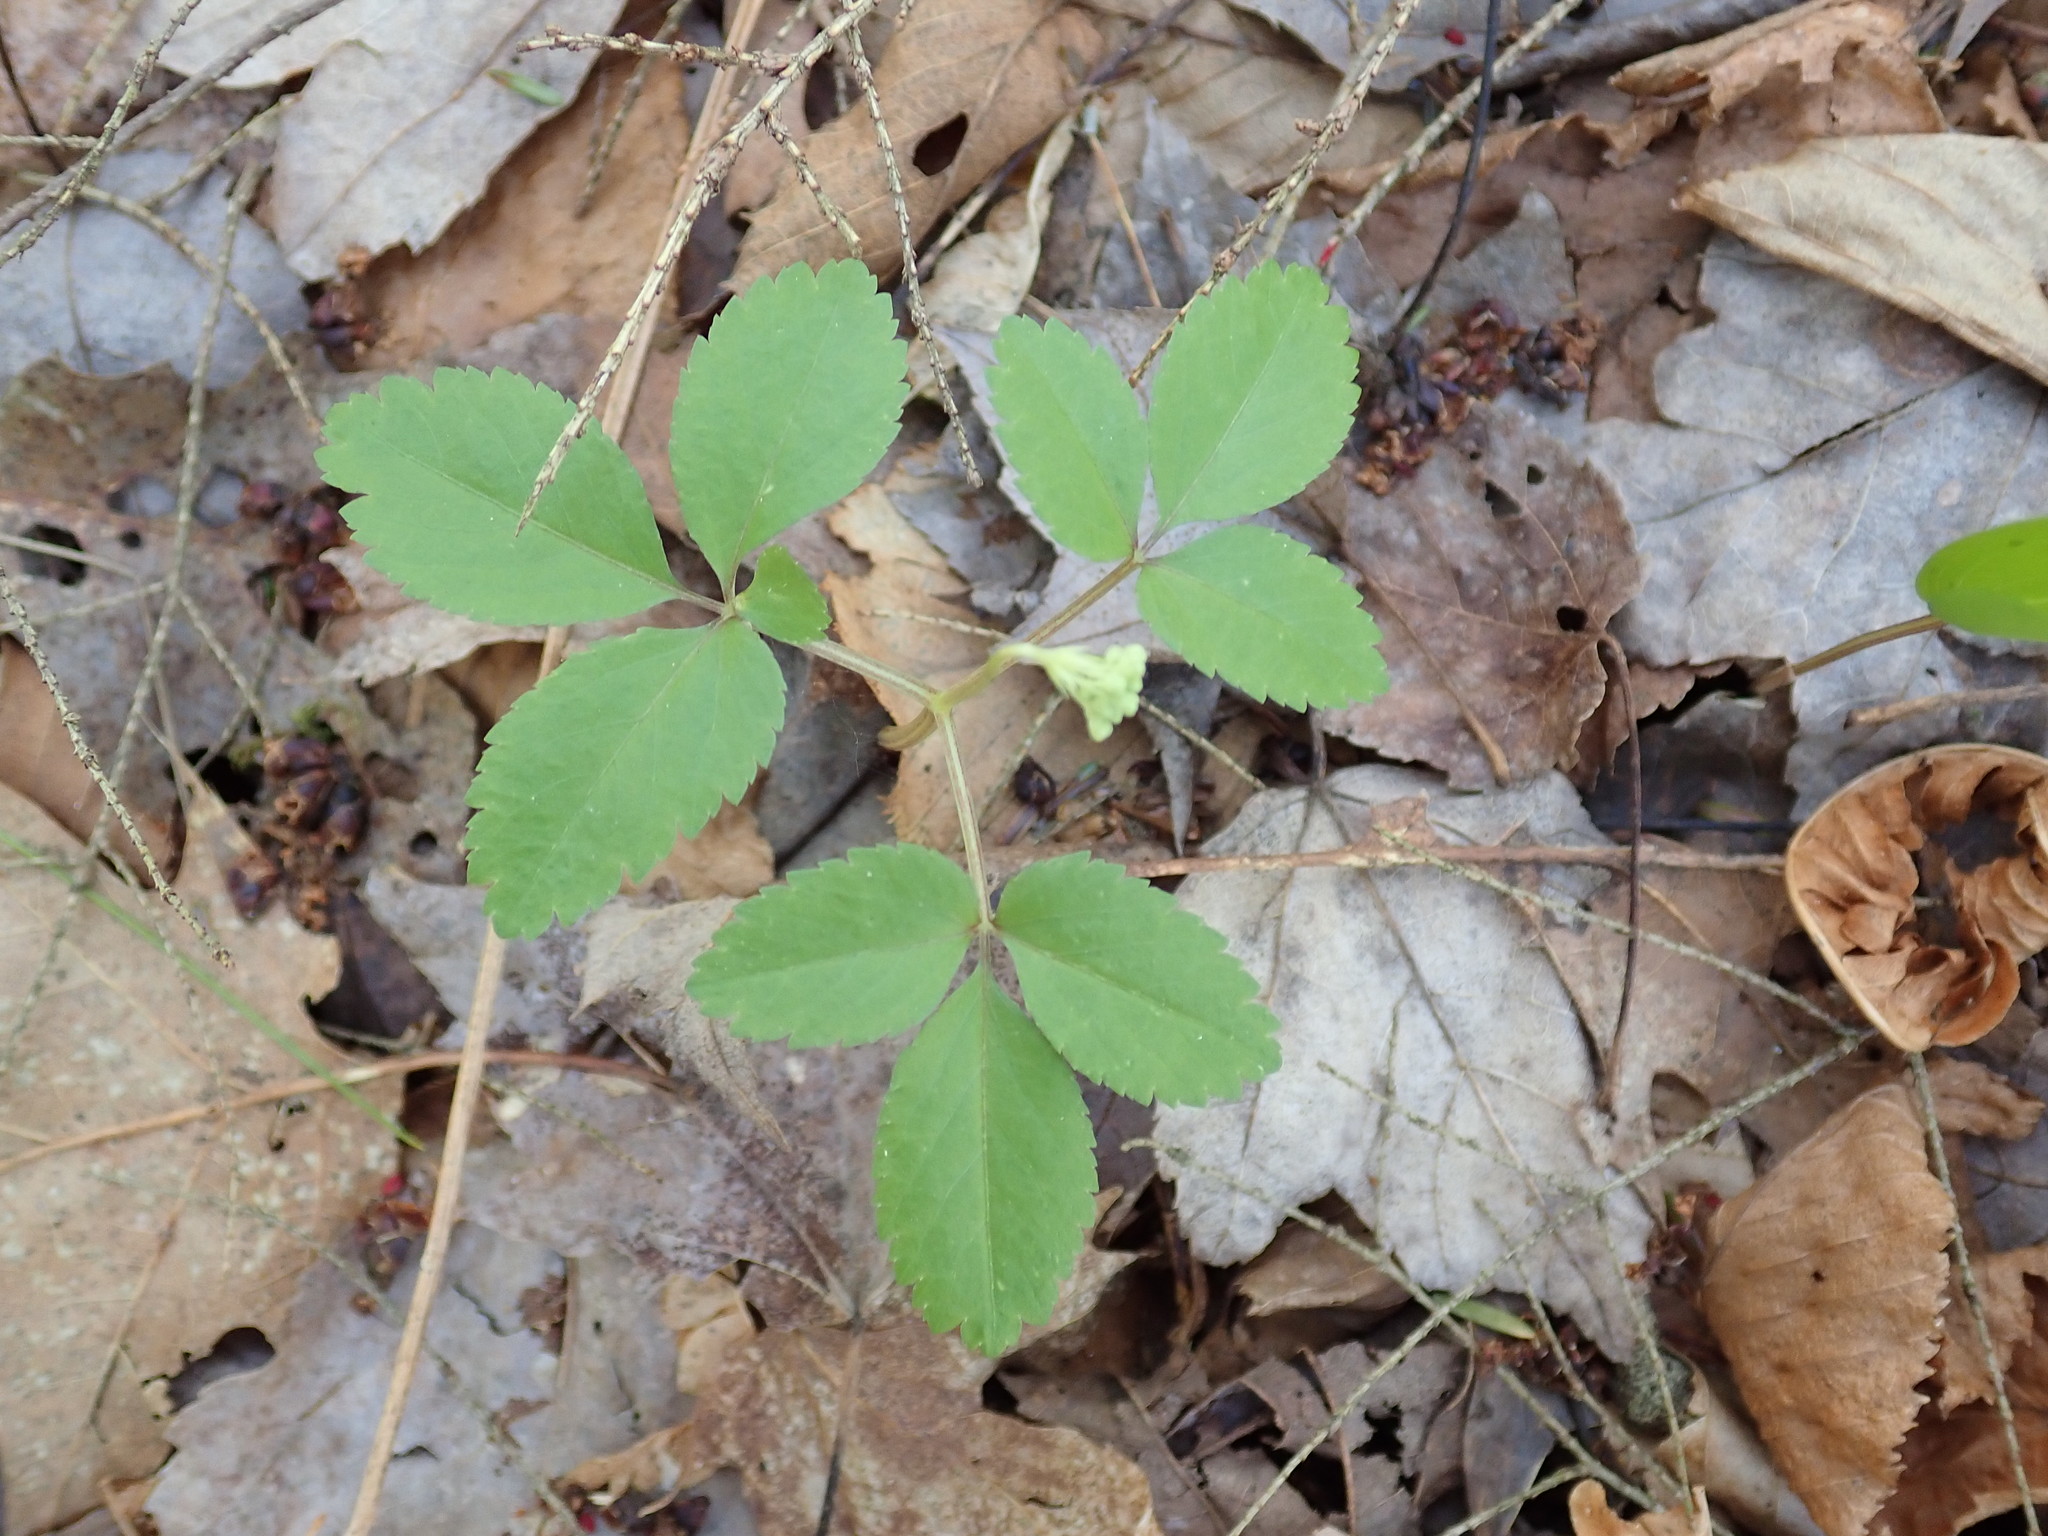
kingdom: Plantae
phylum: Tracheophyta
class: Magnoliopsida
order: Apiales
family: Araliaceae
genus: Panax
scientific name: Panax trifolius
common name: Dwarf ginseng
